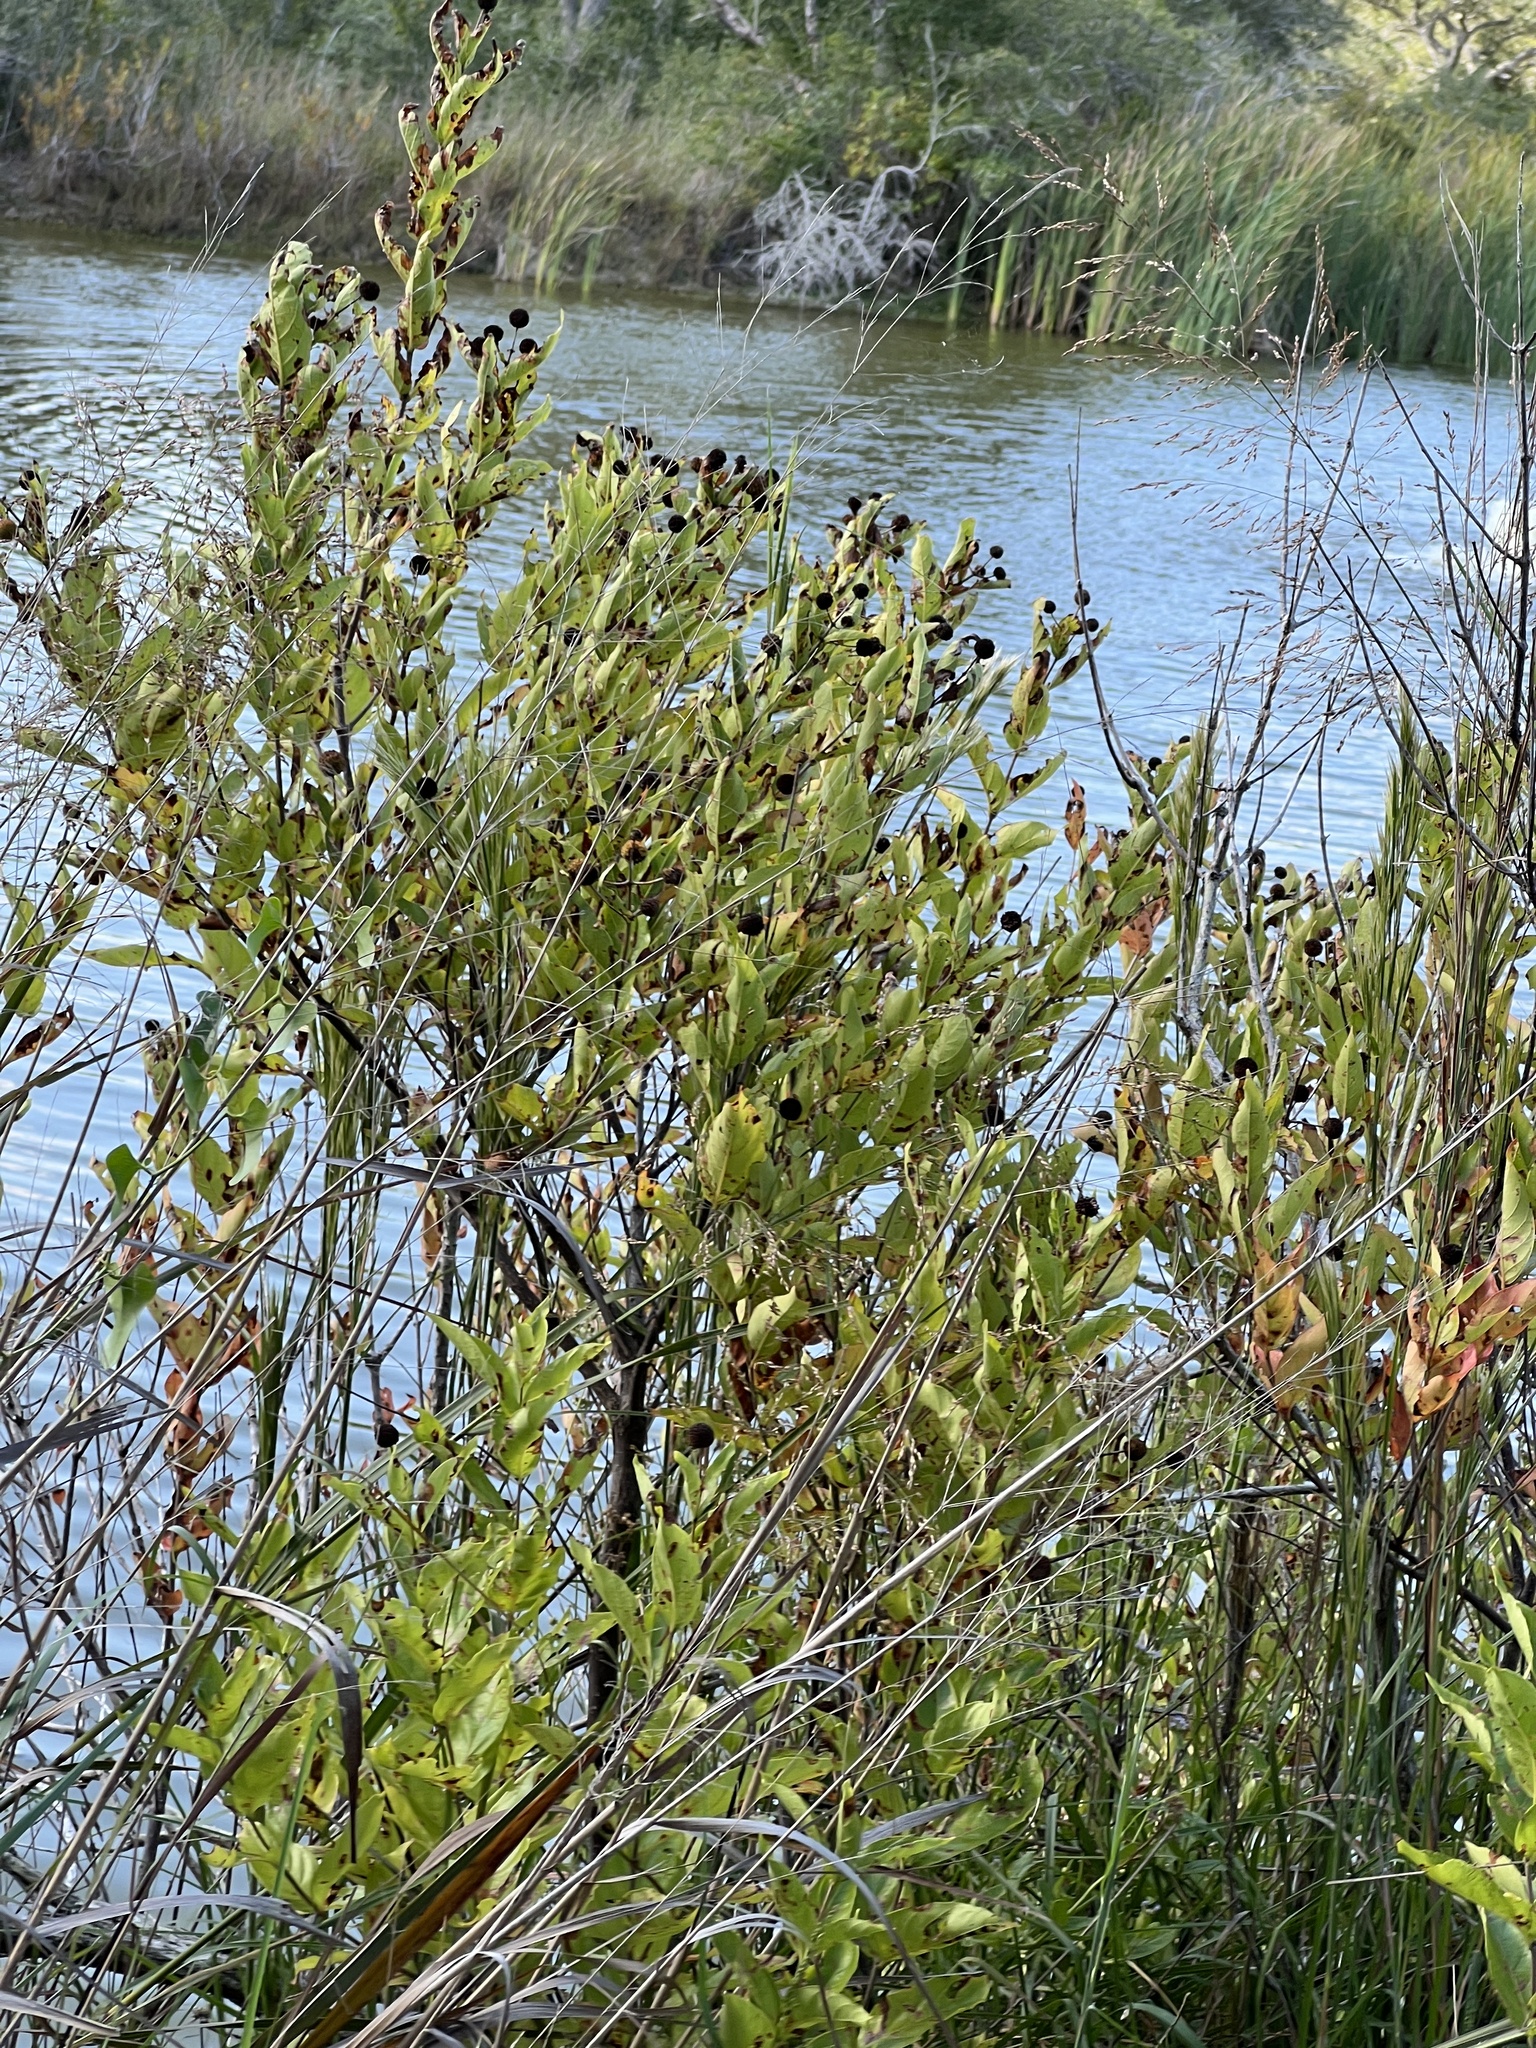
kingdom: Plantae
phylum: Tracheophyta
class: Magnoliopsida
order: Gentianales
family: Rubiaceae
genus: Cephalanthus
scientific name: Cephalanthus occidentalis
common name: Button-willow
